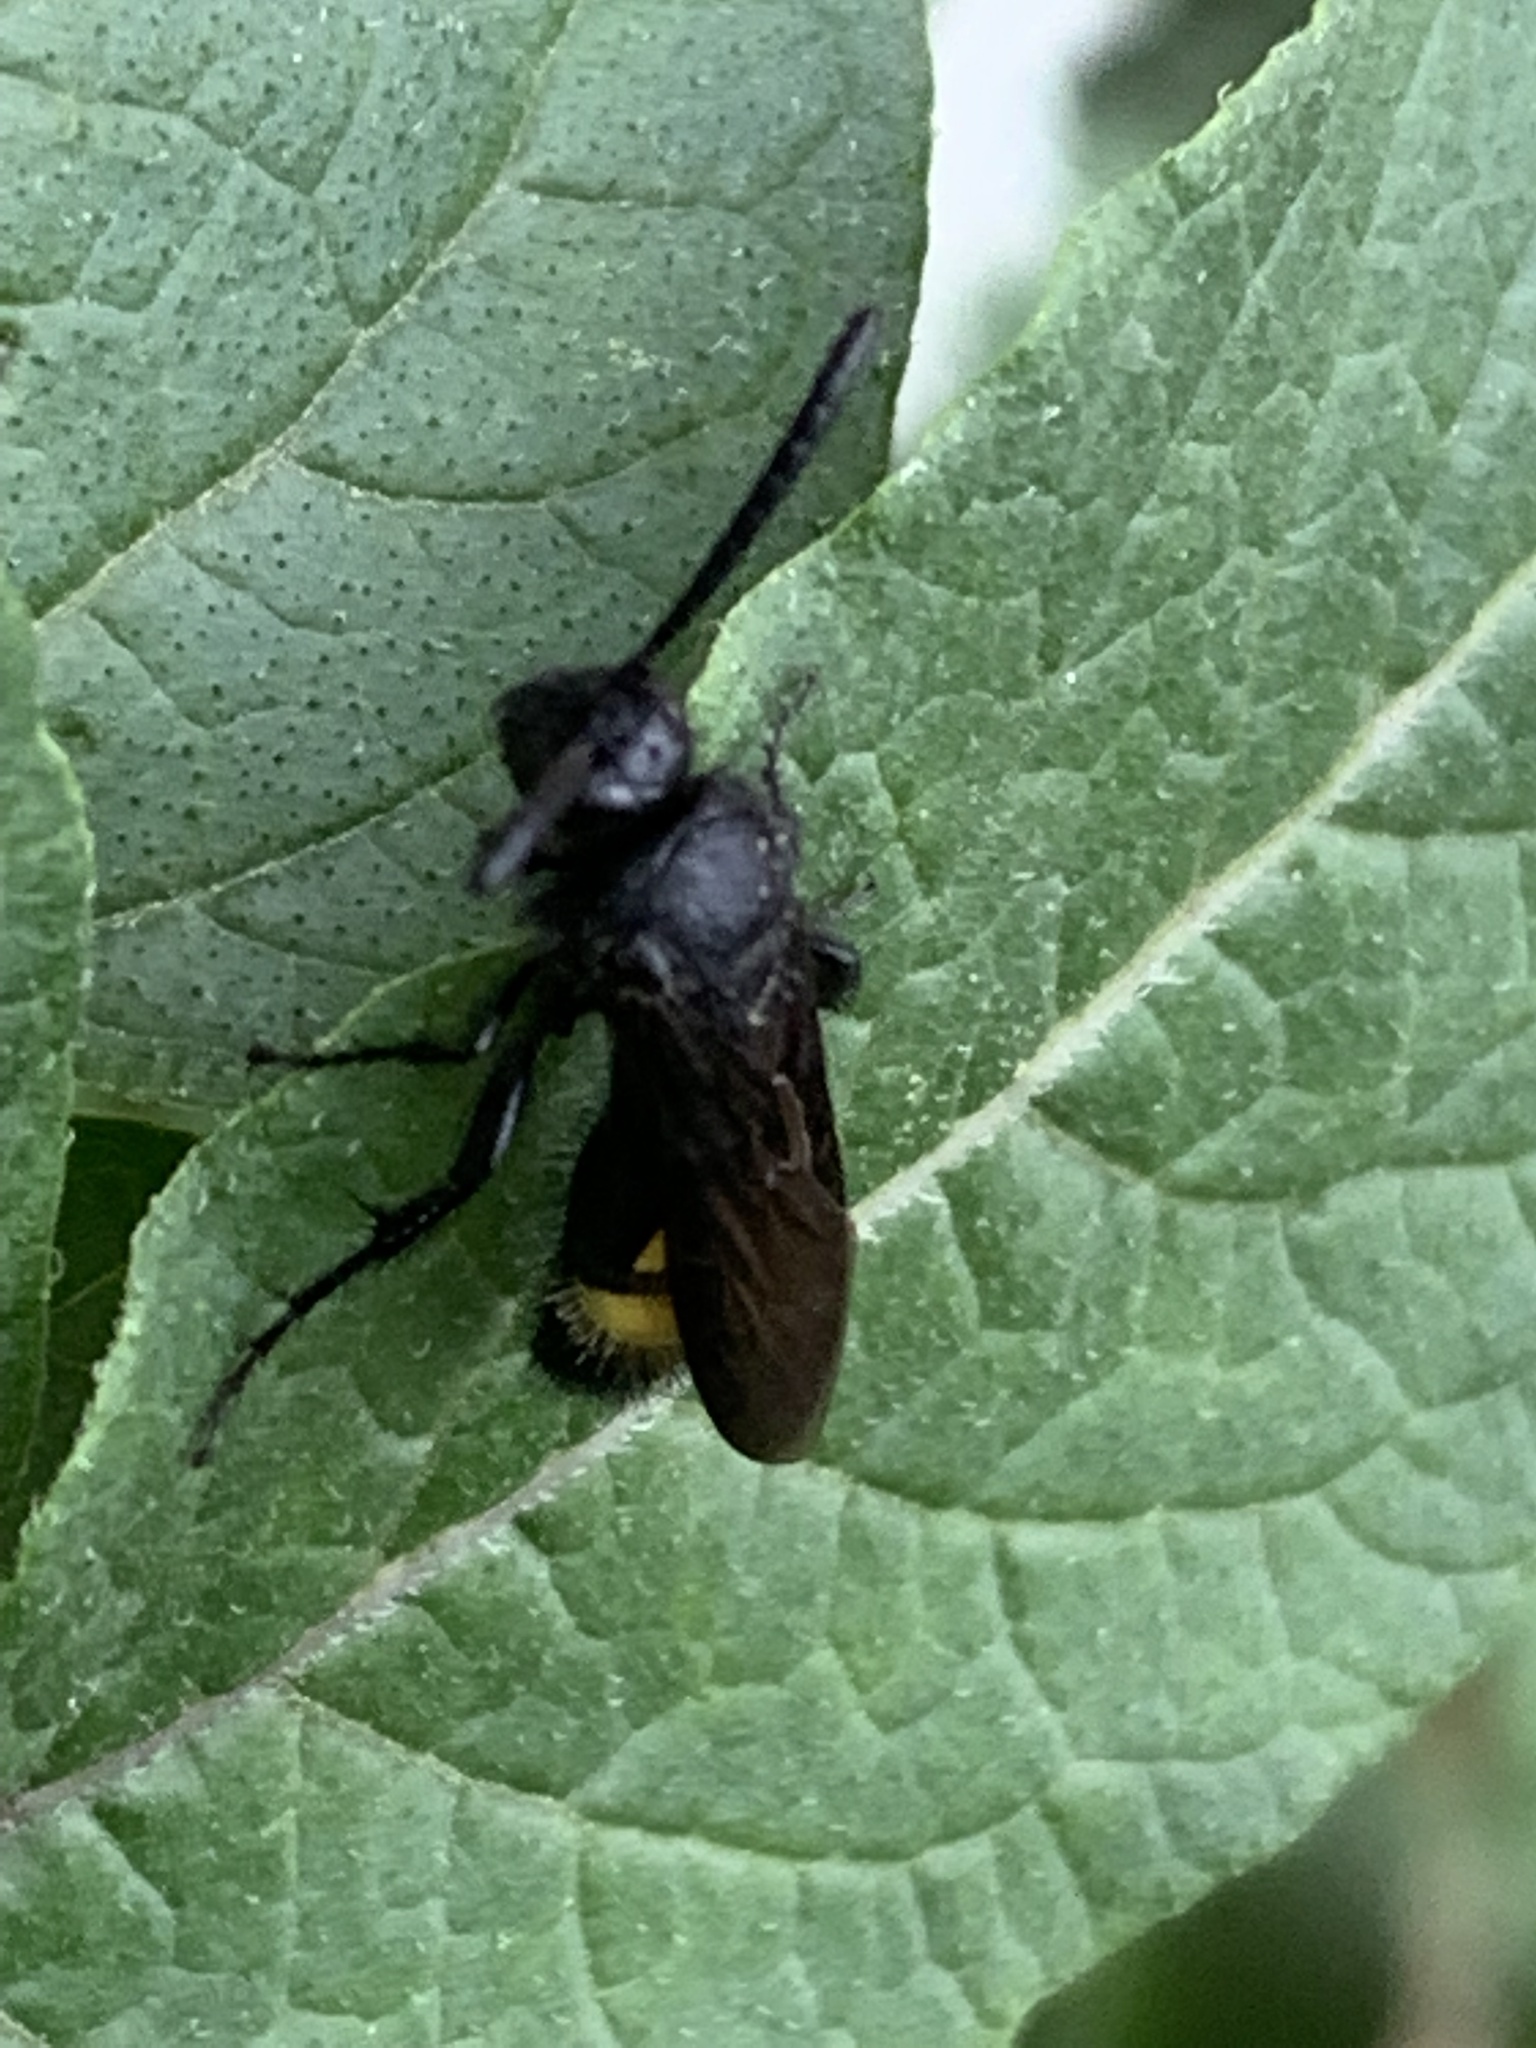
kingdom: Animalia
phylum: Arthropoda
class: Insecta
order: Hymenoptera
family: Scoliidae
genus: Scolia
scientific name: Scolia hirta
